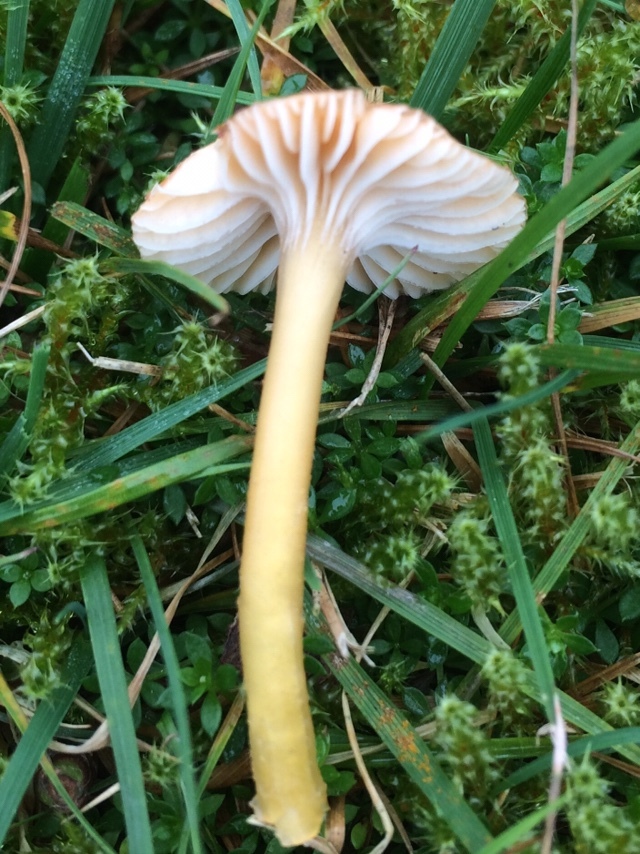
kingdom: Fungi
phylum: Basidiomycota
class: Agaricomycetes
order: Agaricales
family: Hygrophoraceae
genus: Gliophorus
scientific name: Gliophorus laetus
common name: Heath waxcap
